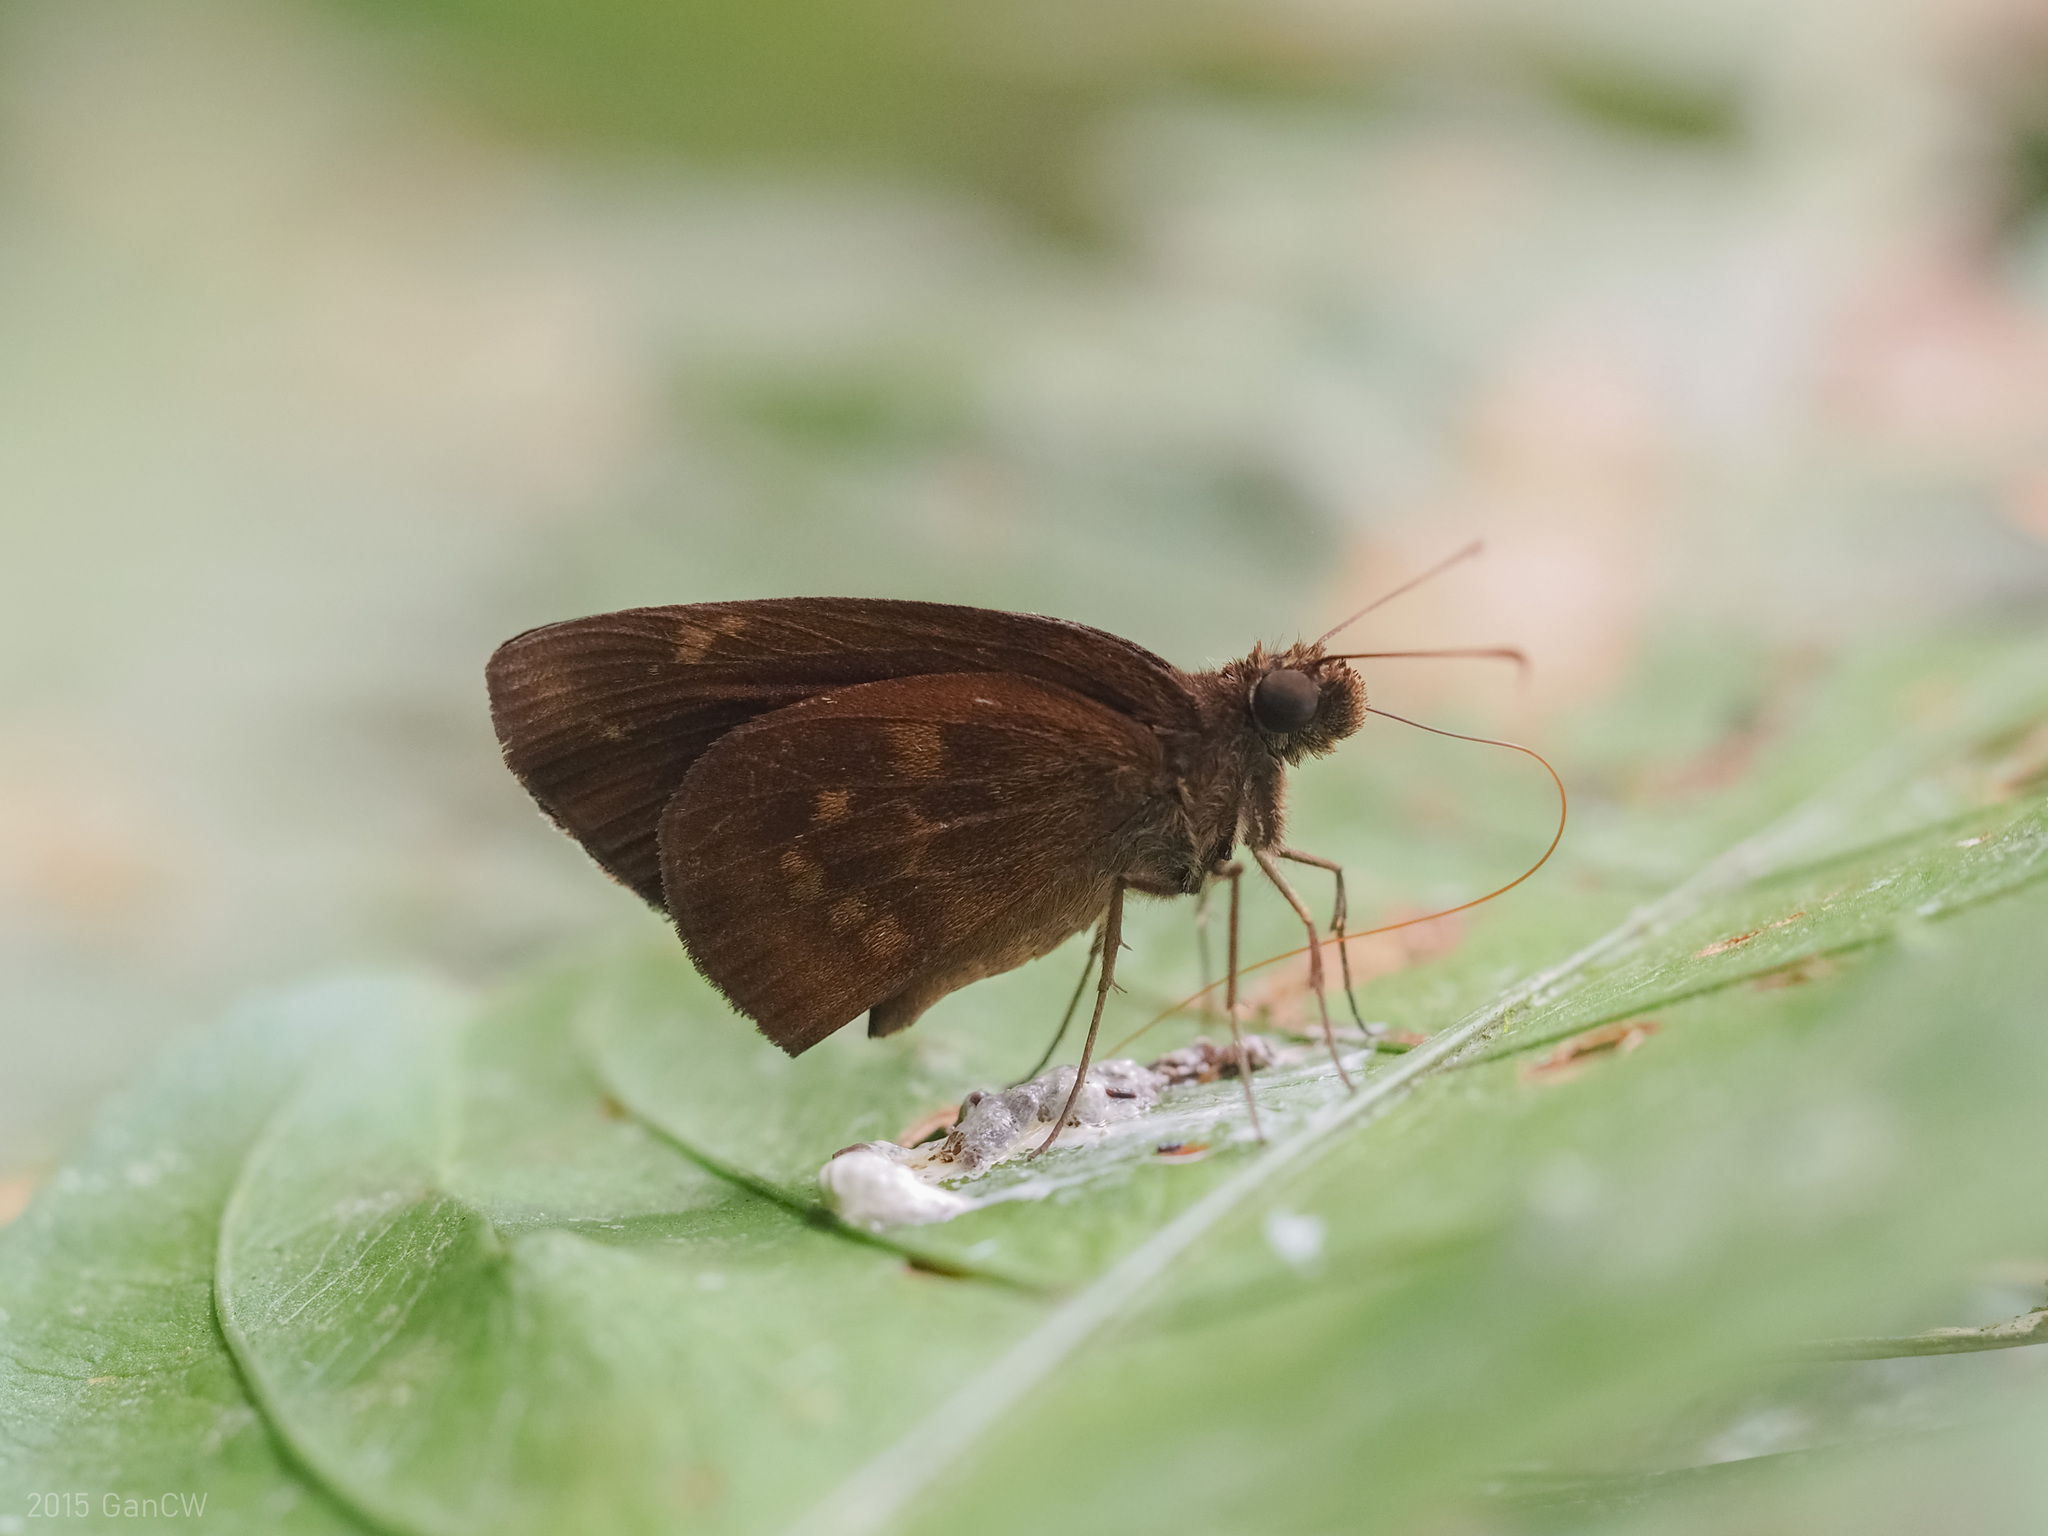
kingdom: Animalia
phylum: Arthropoda
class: Insecta
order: Lepidoptera
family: Hesperiidae
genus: Psolos
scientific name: Psolos fuligo
